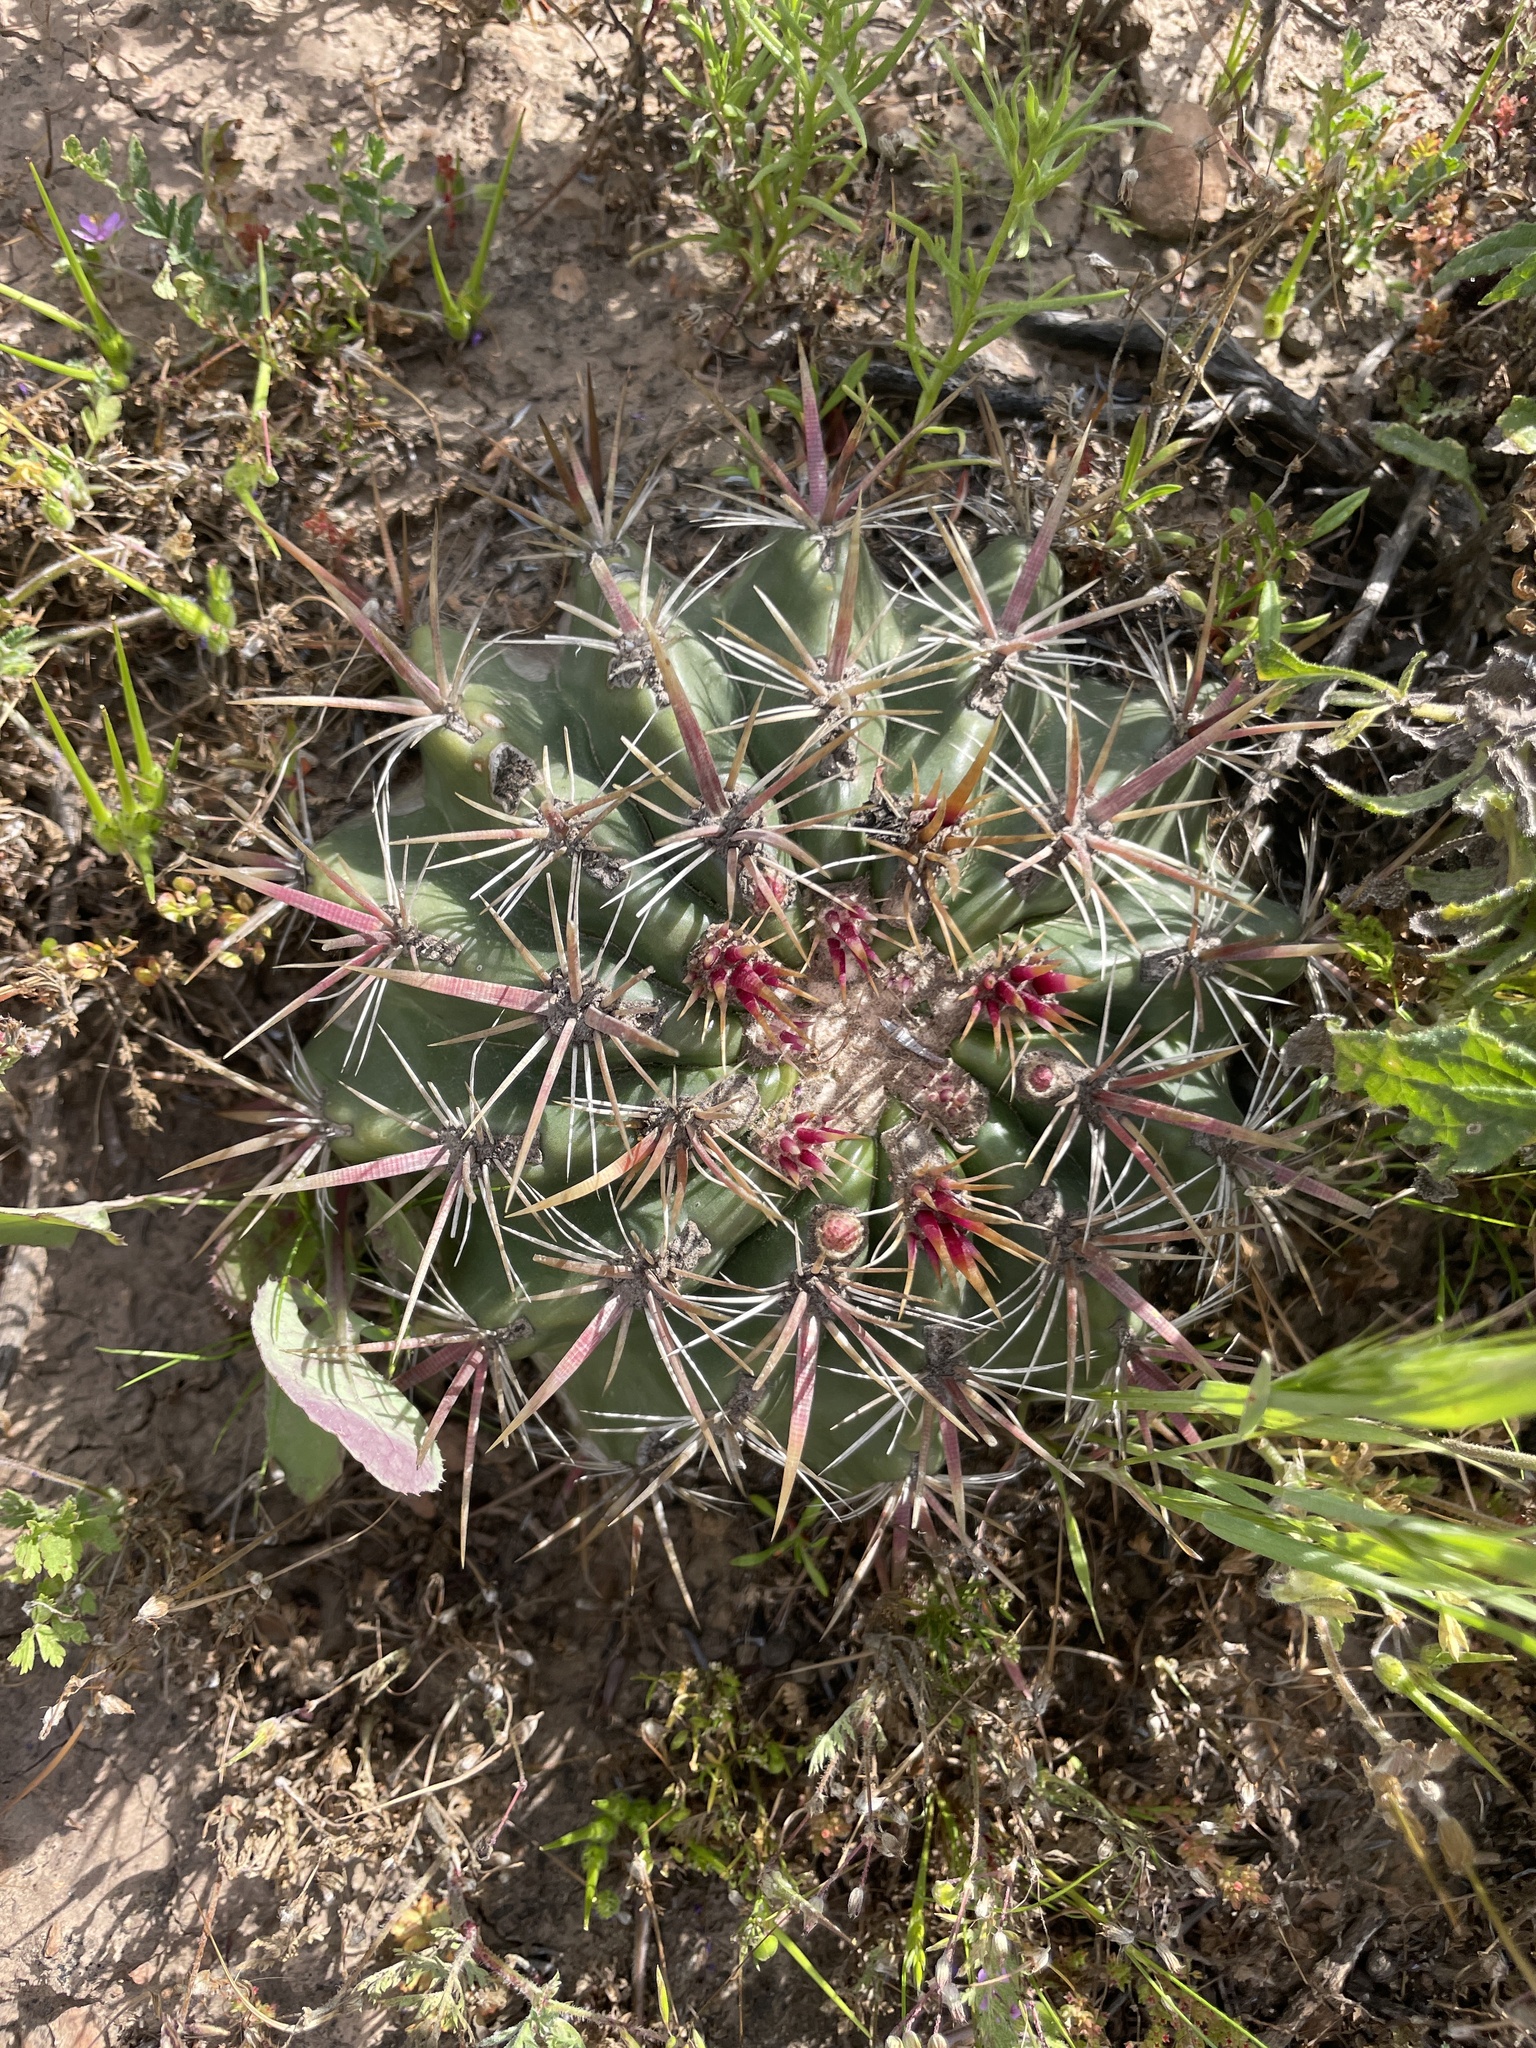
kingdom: Plantae
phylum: Tracheophyta
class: Magnoliopsida
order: Caryophyllales
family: Cactaceae
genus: Ferocactus
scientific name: Ferocactus viridescens
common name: San diego barrel cactus
